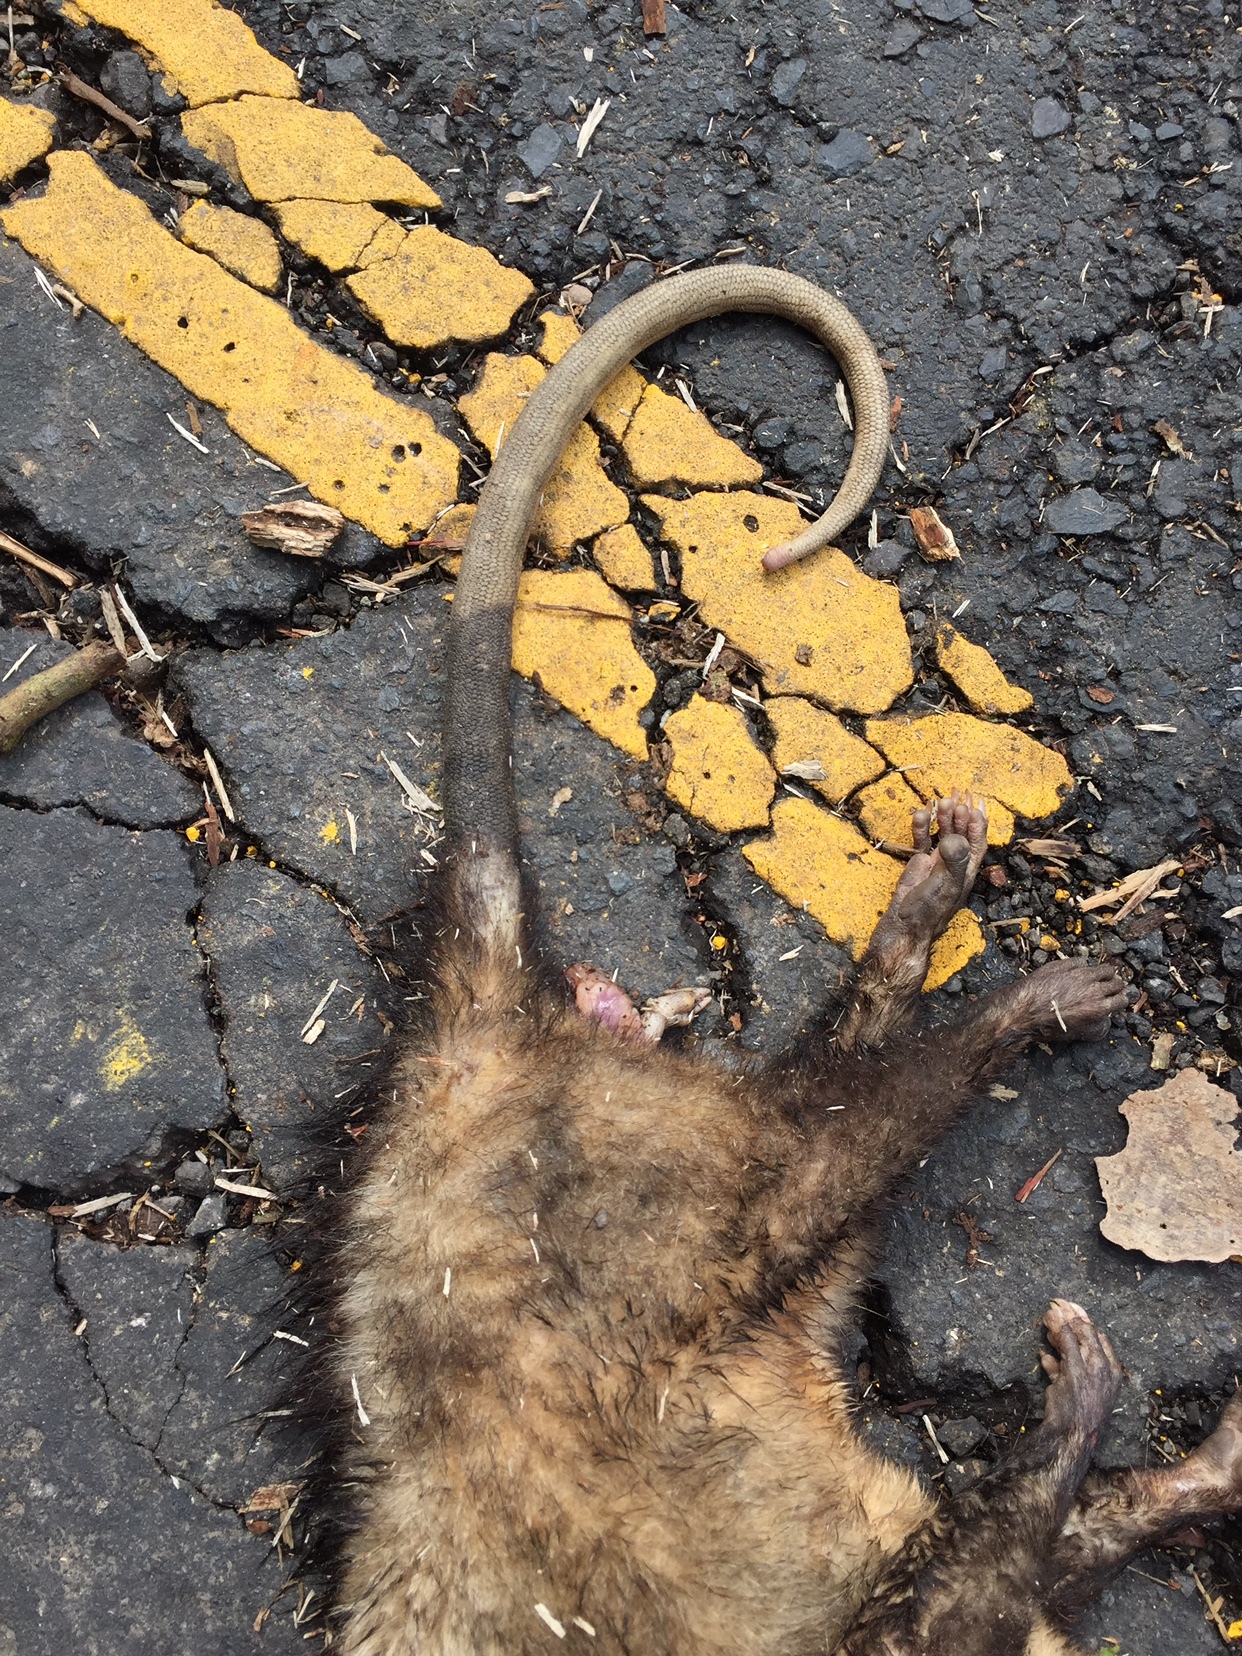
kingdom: Animalia
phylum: Chordata
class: Mammalia
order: Didelphimorphia
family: Didelphidae
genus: Didelphis
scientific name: Didelphis marsupialis
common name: Common opossum
